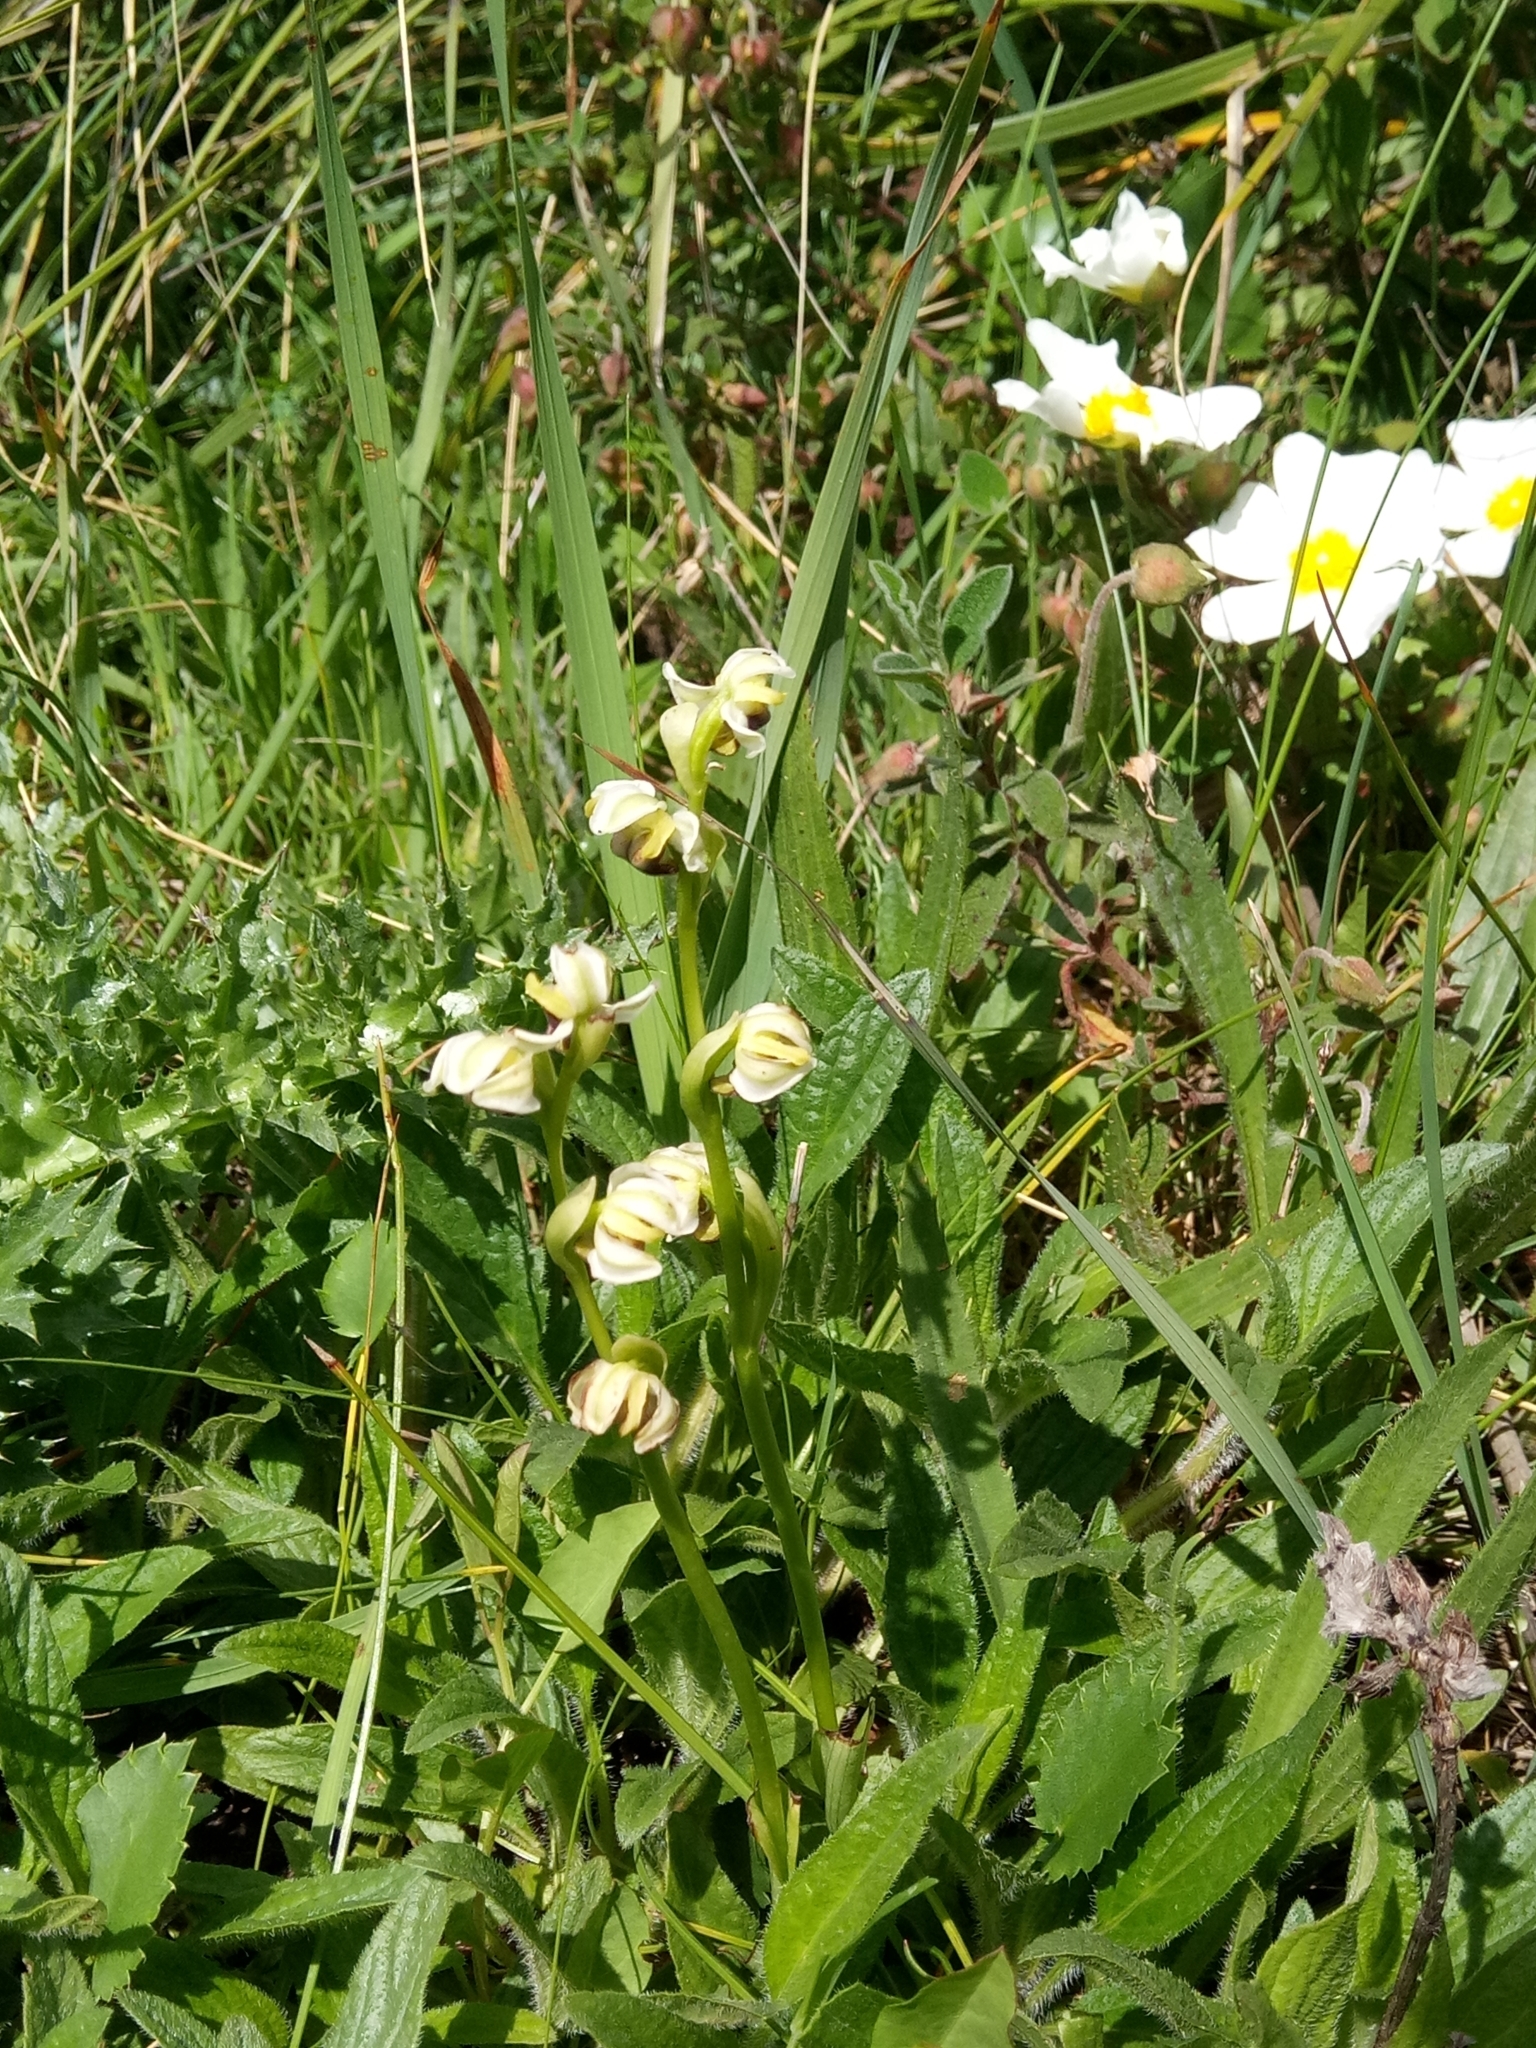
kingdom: Plantae
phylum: Tracheophyta
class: Liliopsida
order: Asparagales
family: Orchidaceae
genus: Ophrys
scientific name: Ophrys fusca
